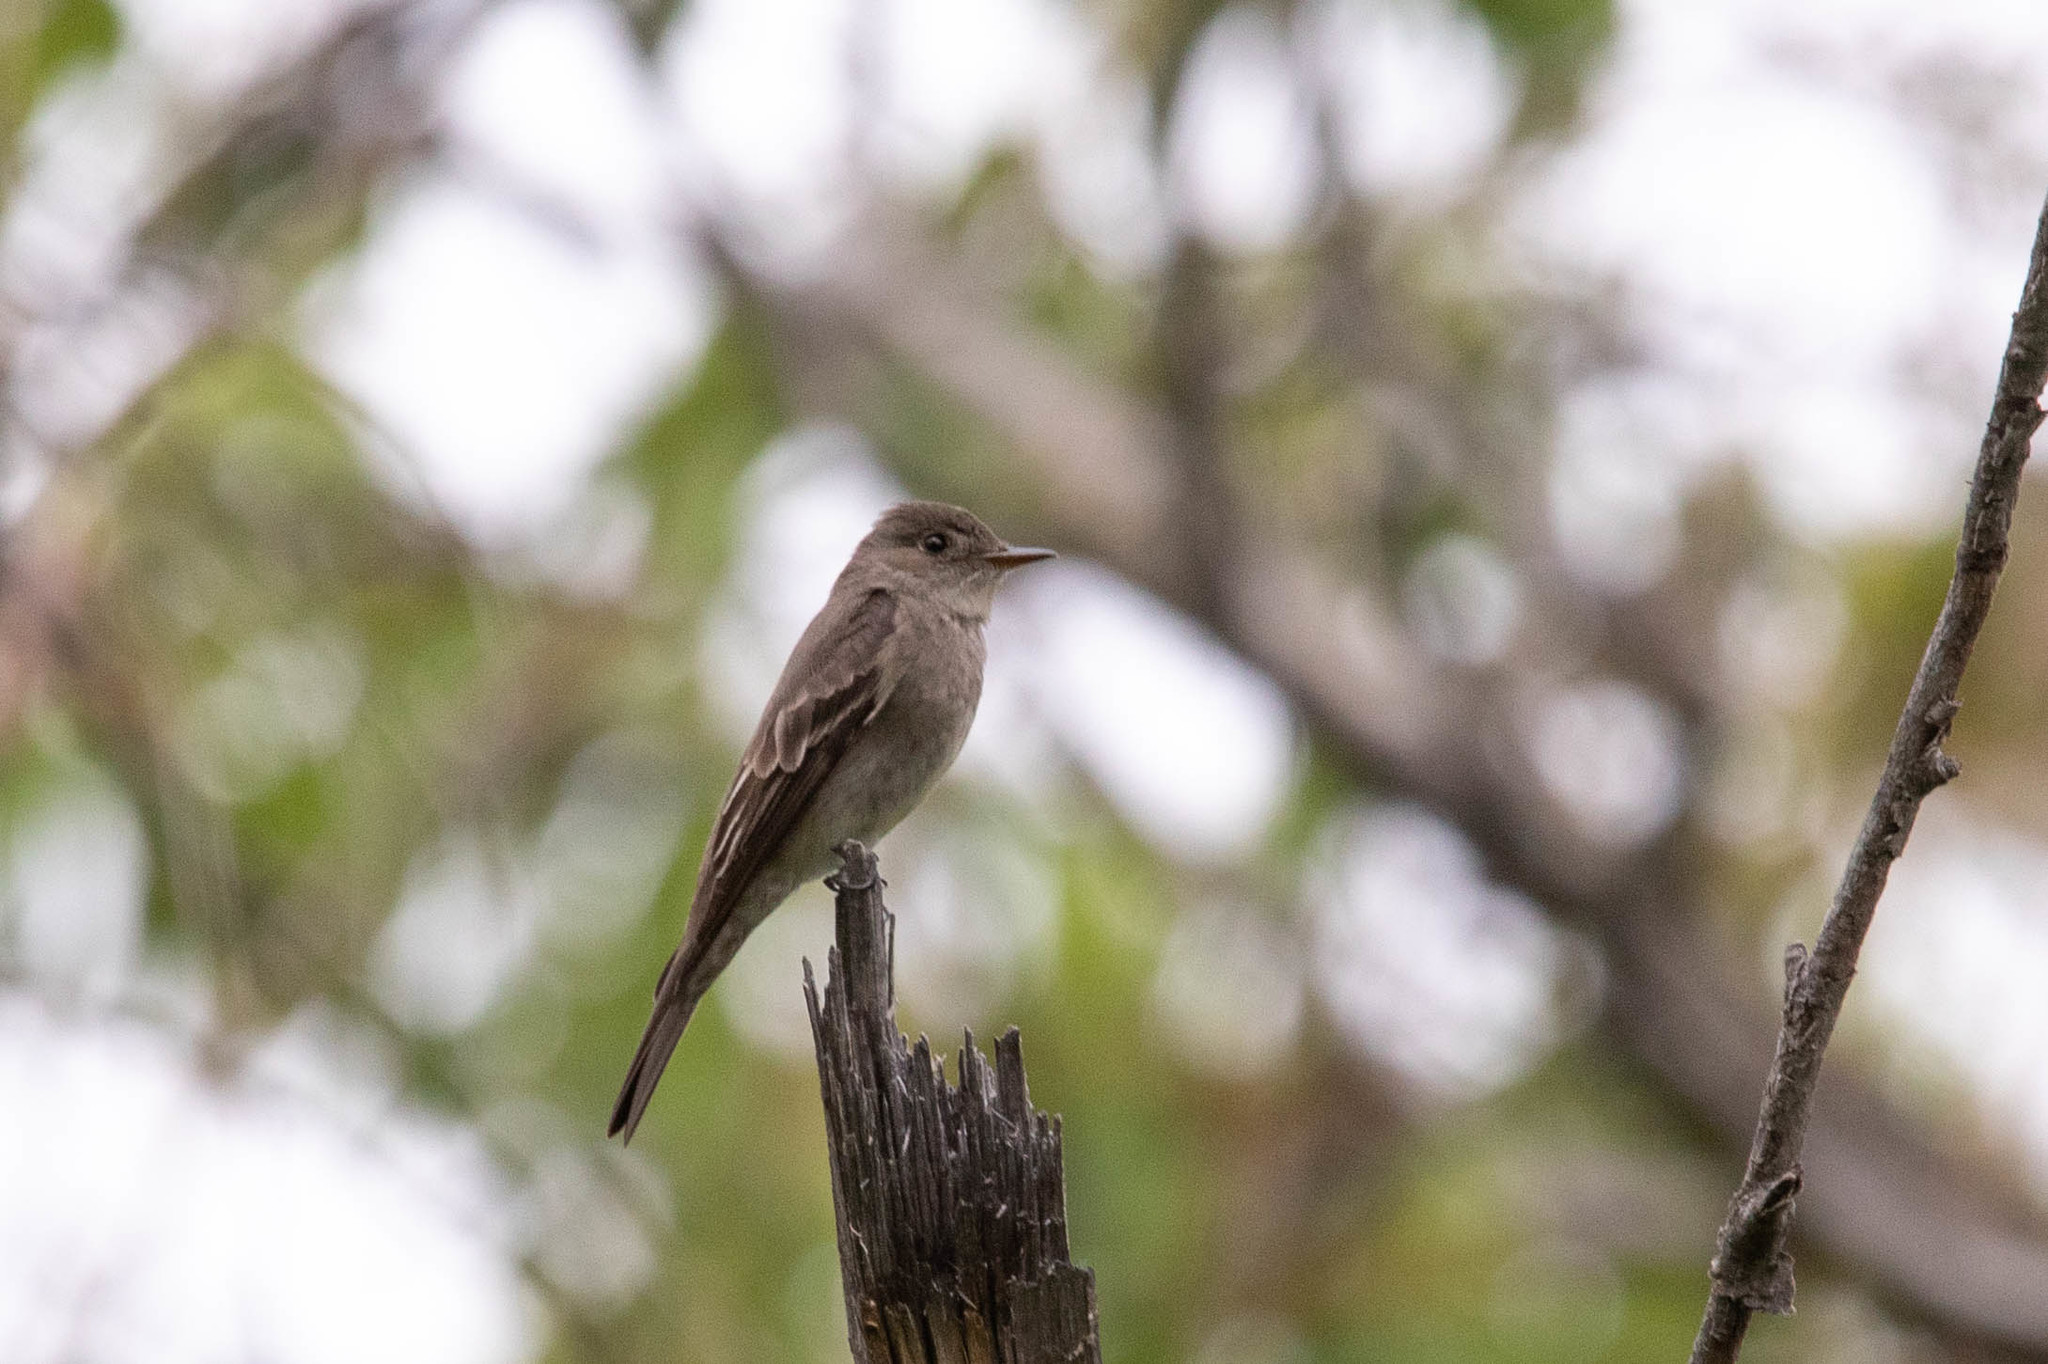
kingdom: Animalia
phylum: Chordata
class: Aves
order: Passeriformes
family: Tyrannidae
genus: Contopus
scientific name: Contopus sordidulus
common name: Western wood-pewee
